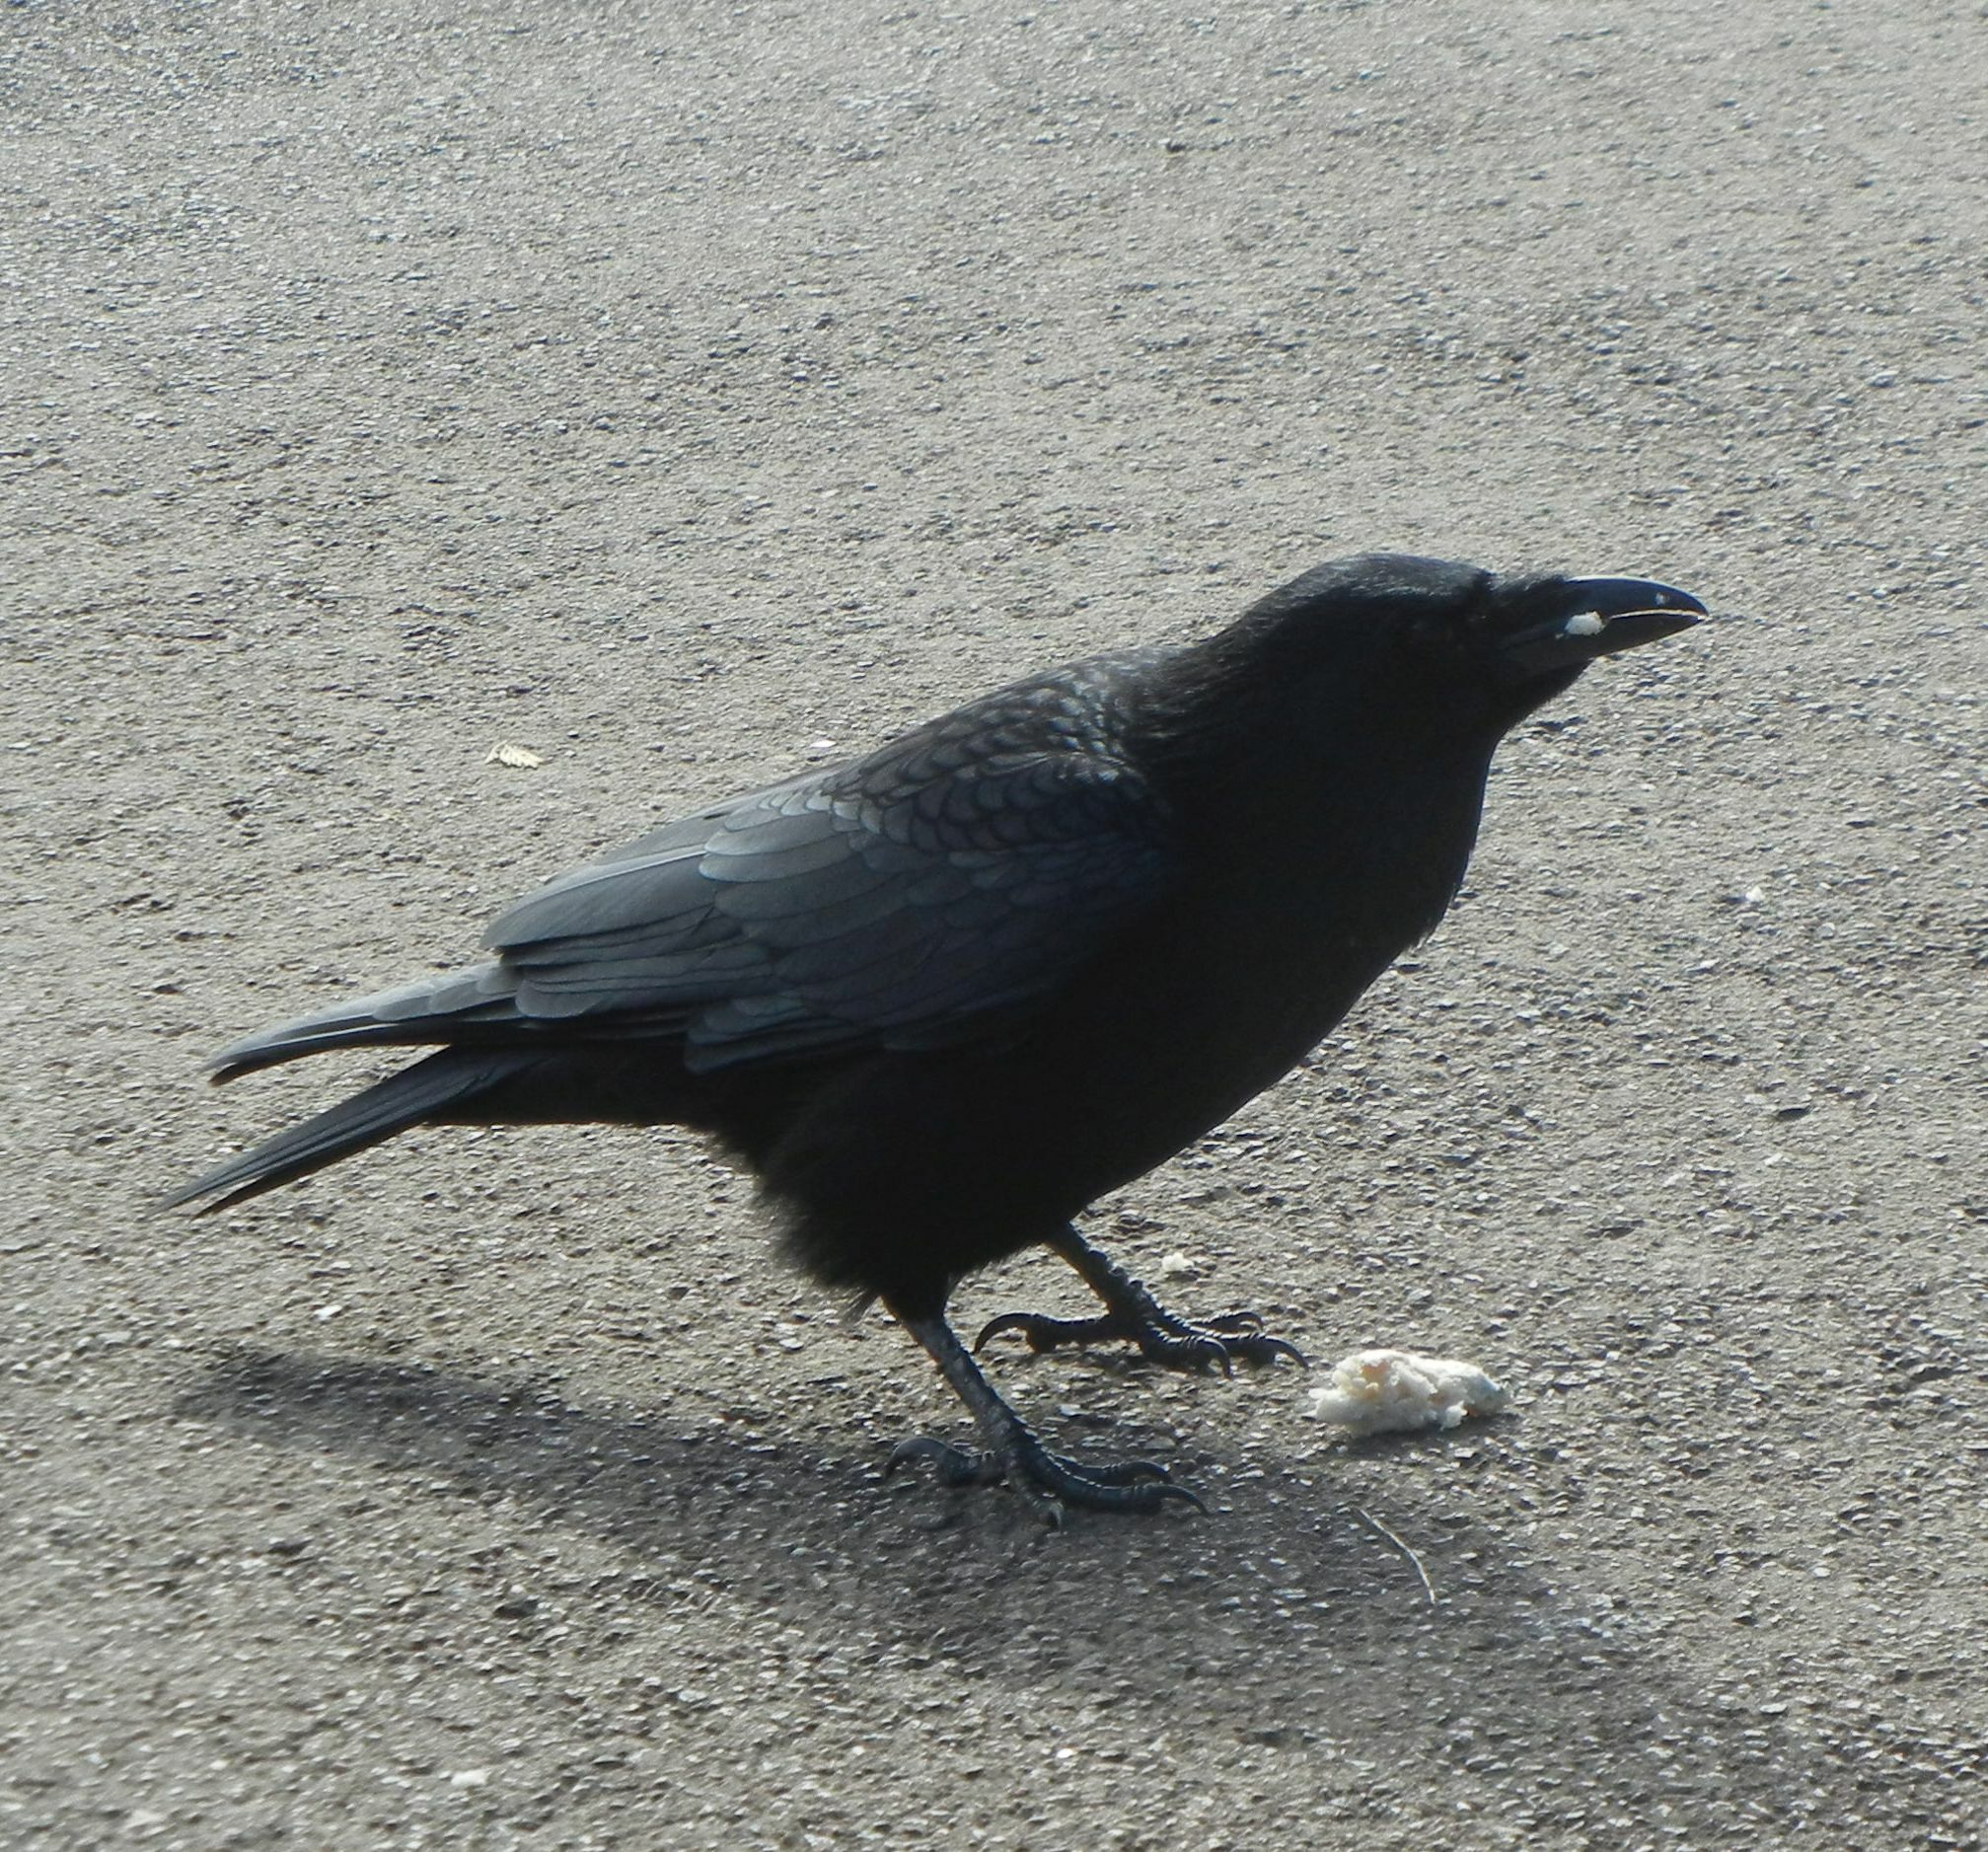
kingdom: Animalia
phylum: Chordata
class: Aves
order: Passeriformes
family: Corvidae
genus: Corvus
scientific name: Corvus corone
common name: Carrion crow
